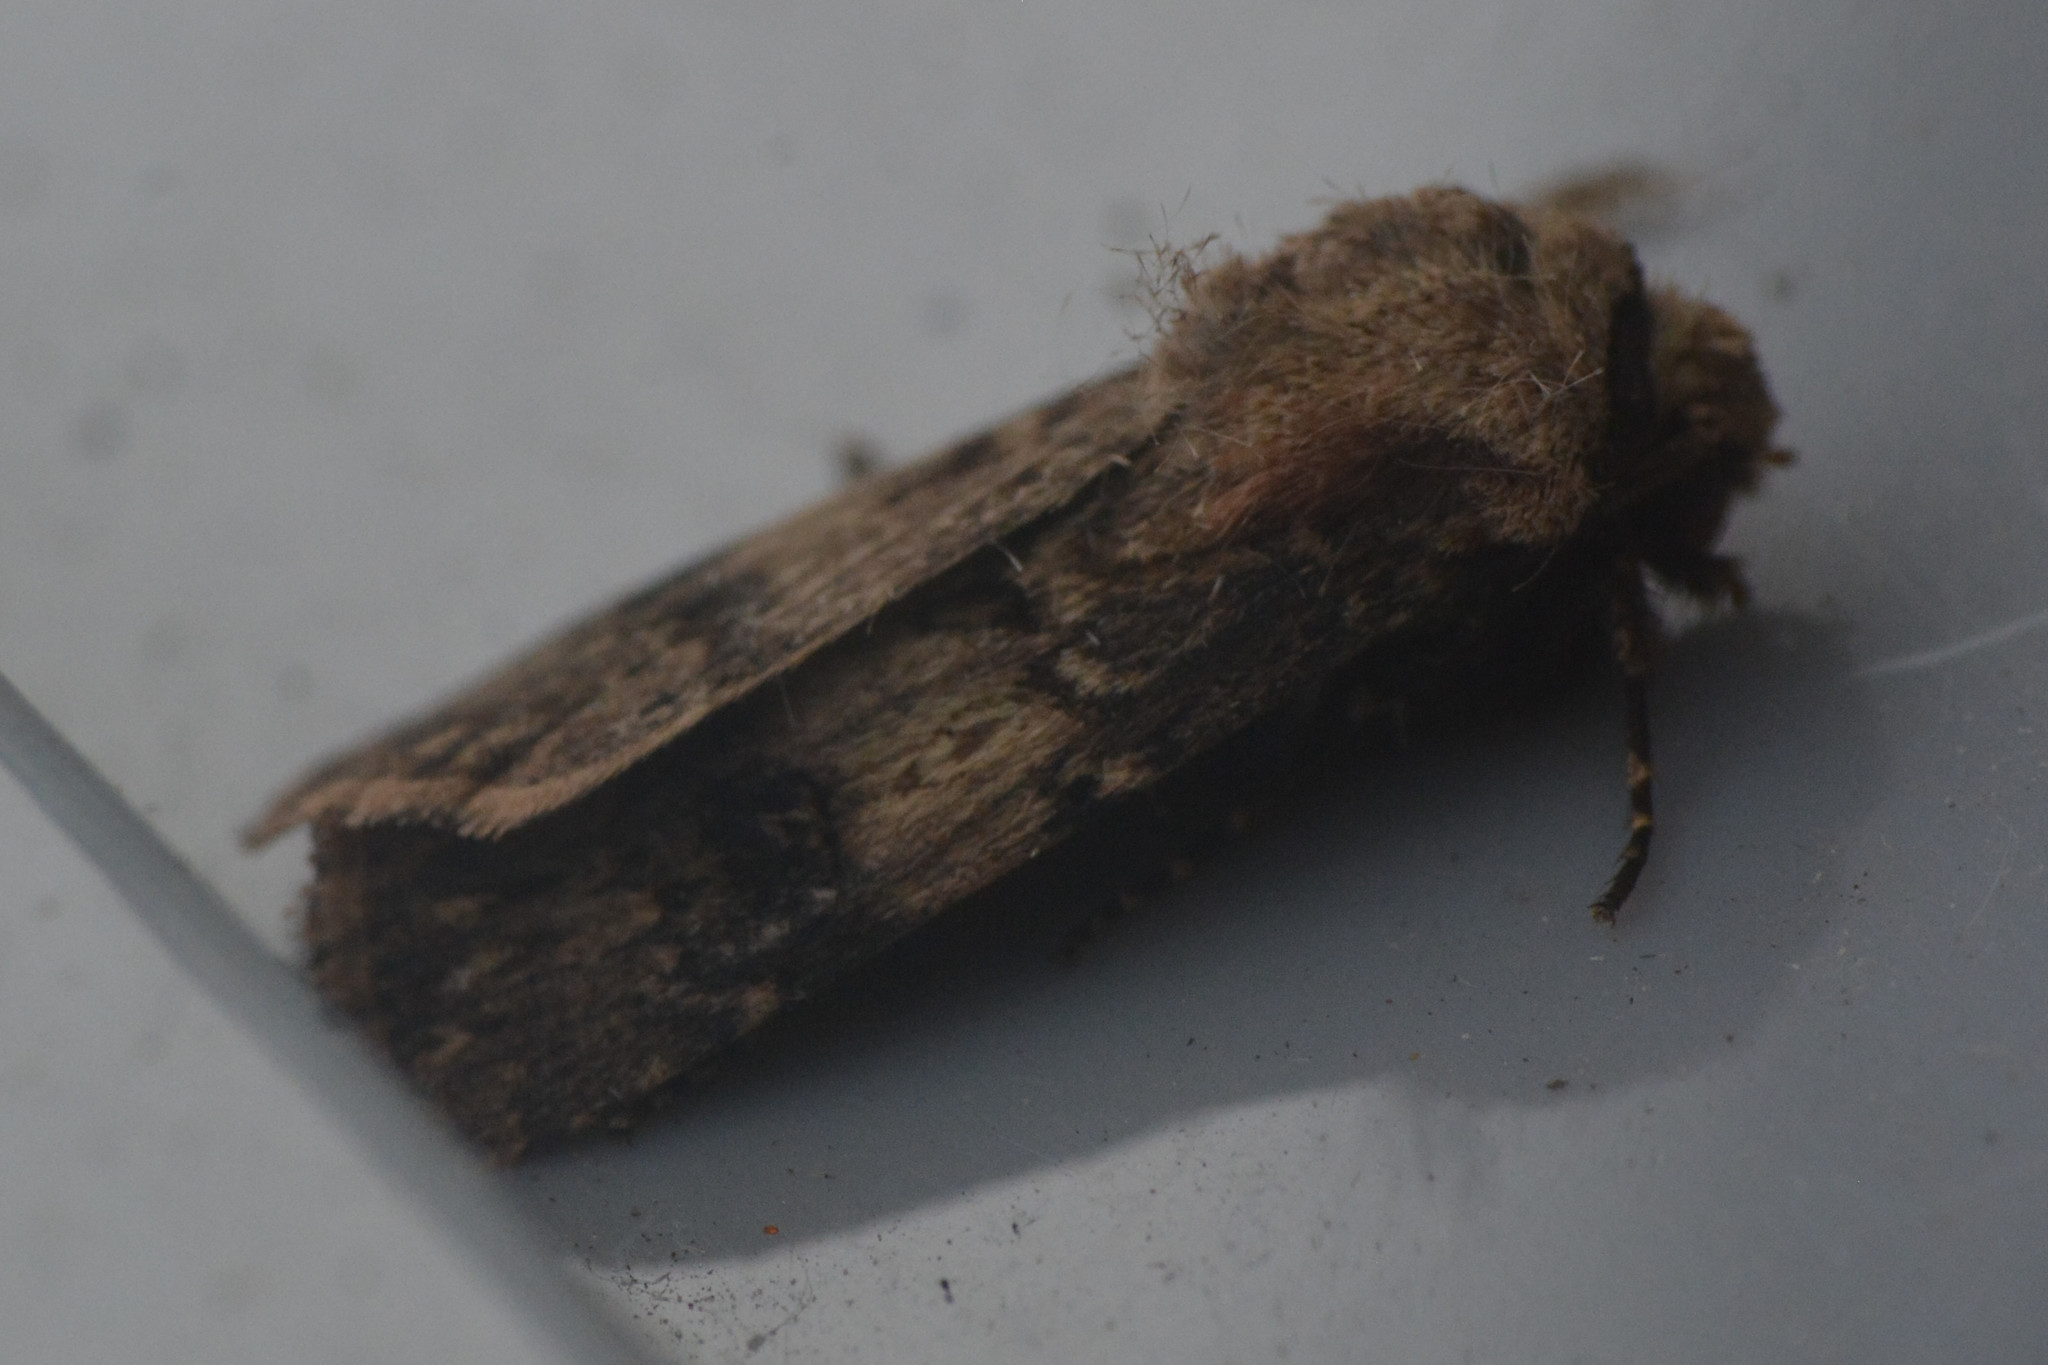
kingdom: Animalia
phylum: Arthropoda
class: Insecta
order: Lepidoptera
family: Noctuidae
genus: Agrotis
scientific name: Agrotis puta
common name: Shuttle-shaped dart
